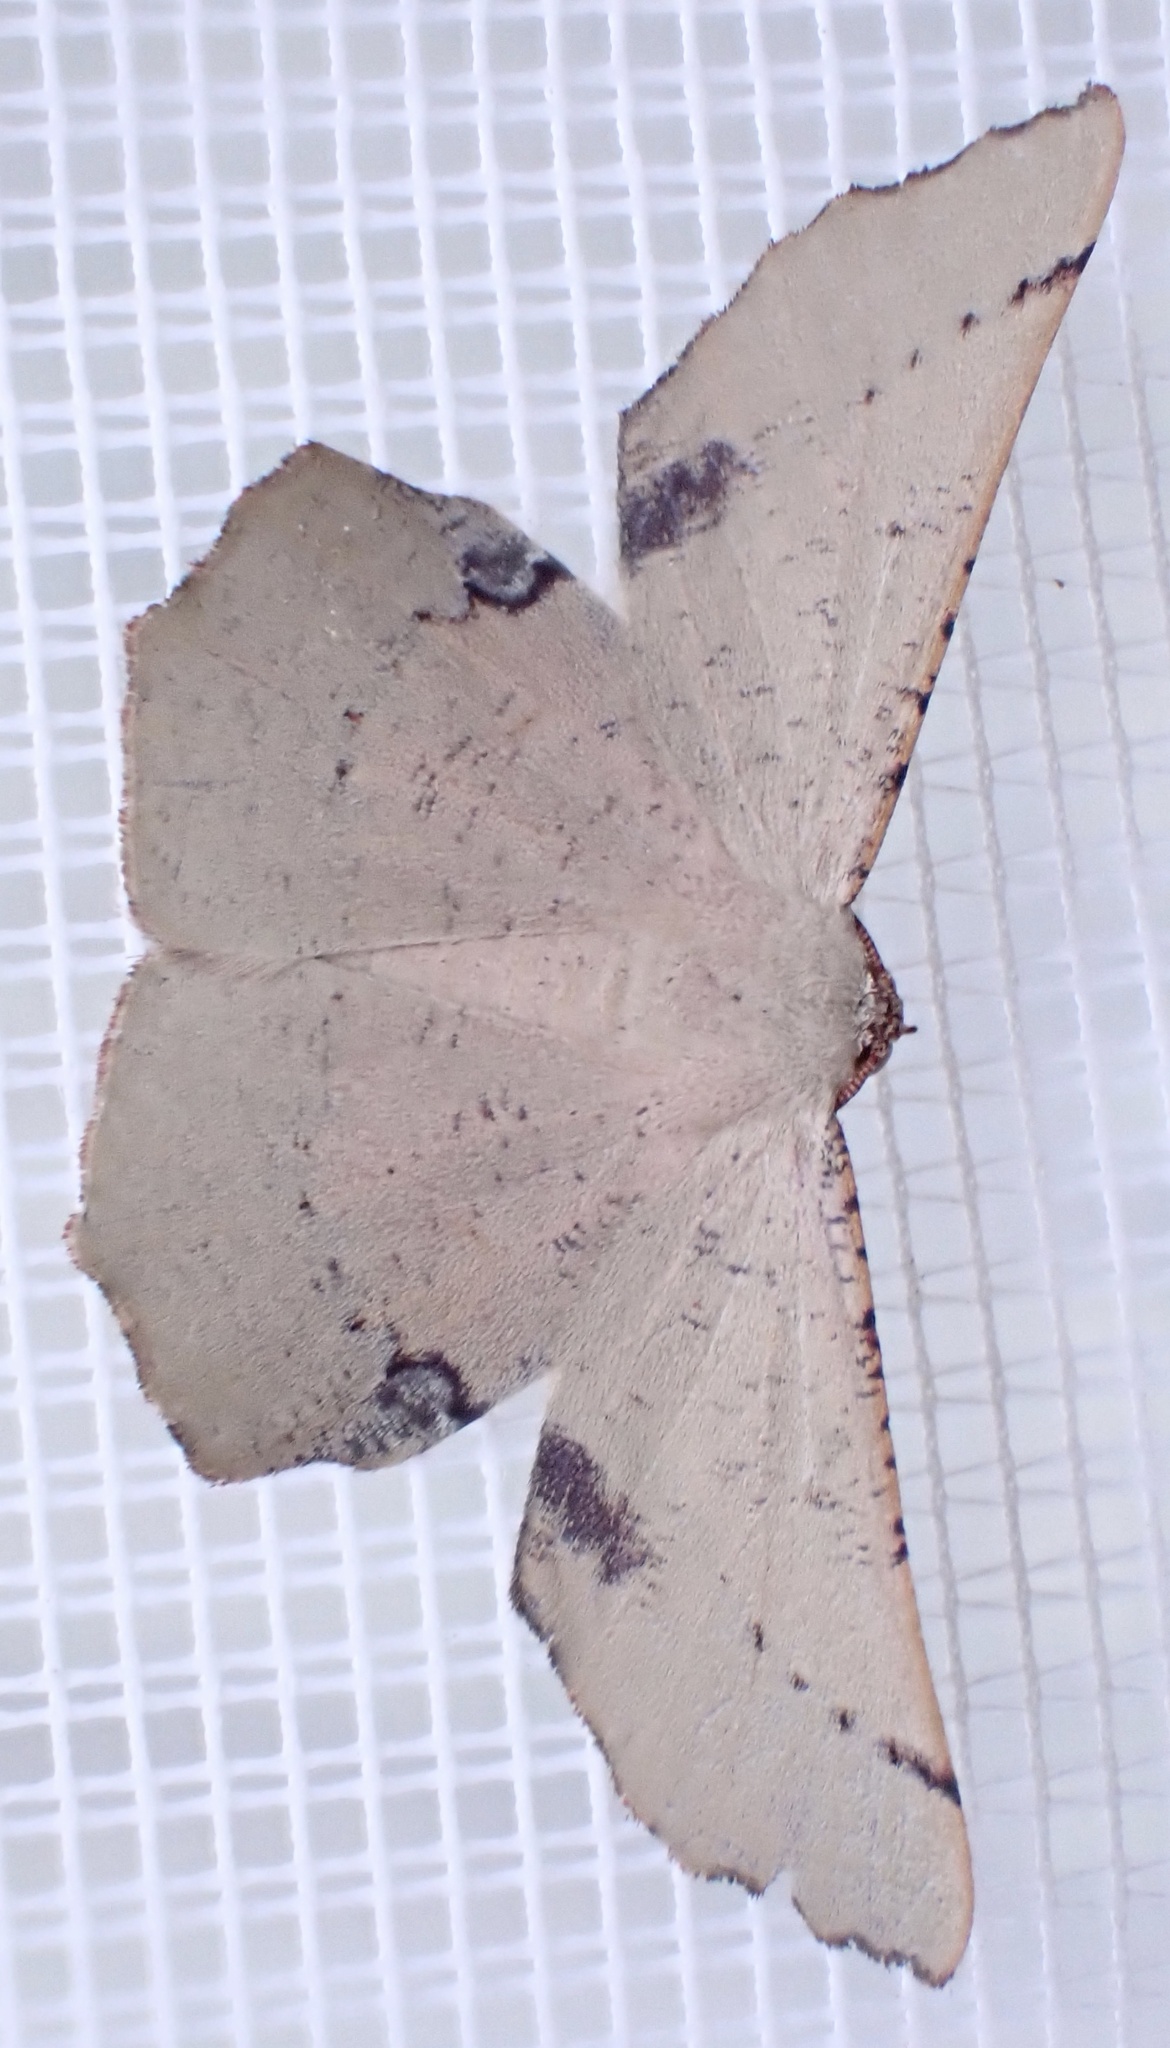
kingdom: Animalia
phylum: Arthropoda
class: Insecta
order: Lepidoptera
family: Geometridae
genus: Cernia
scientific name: Cernia amyclaria
